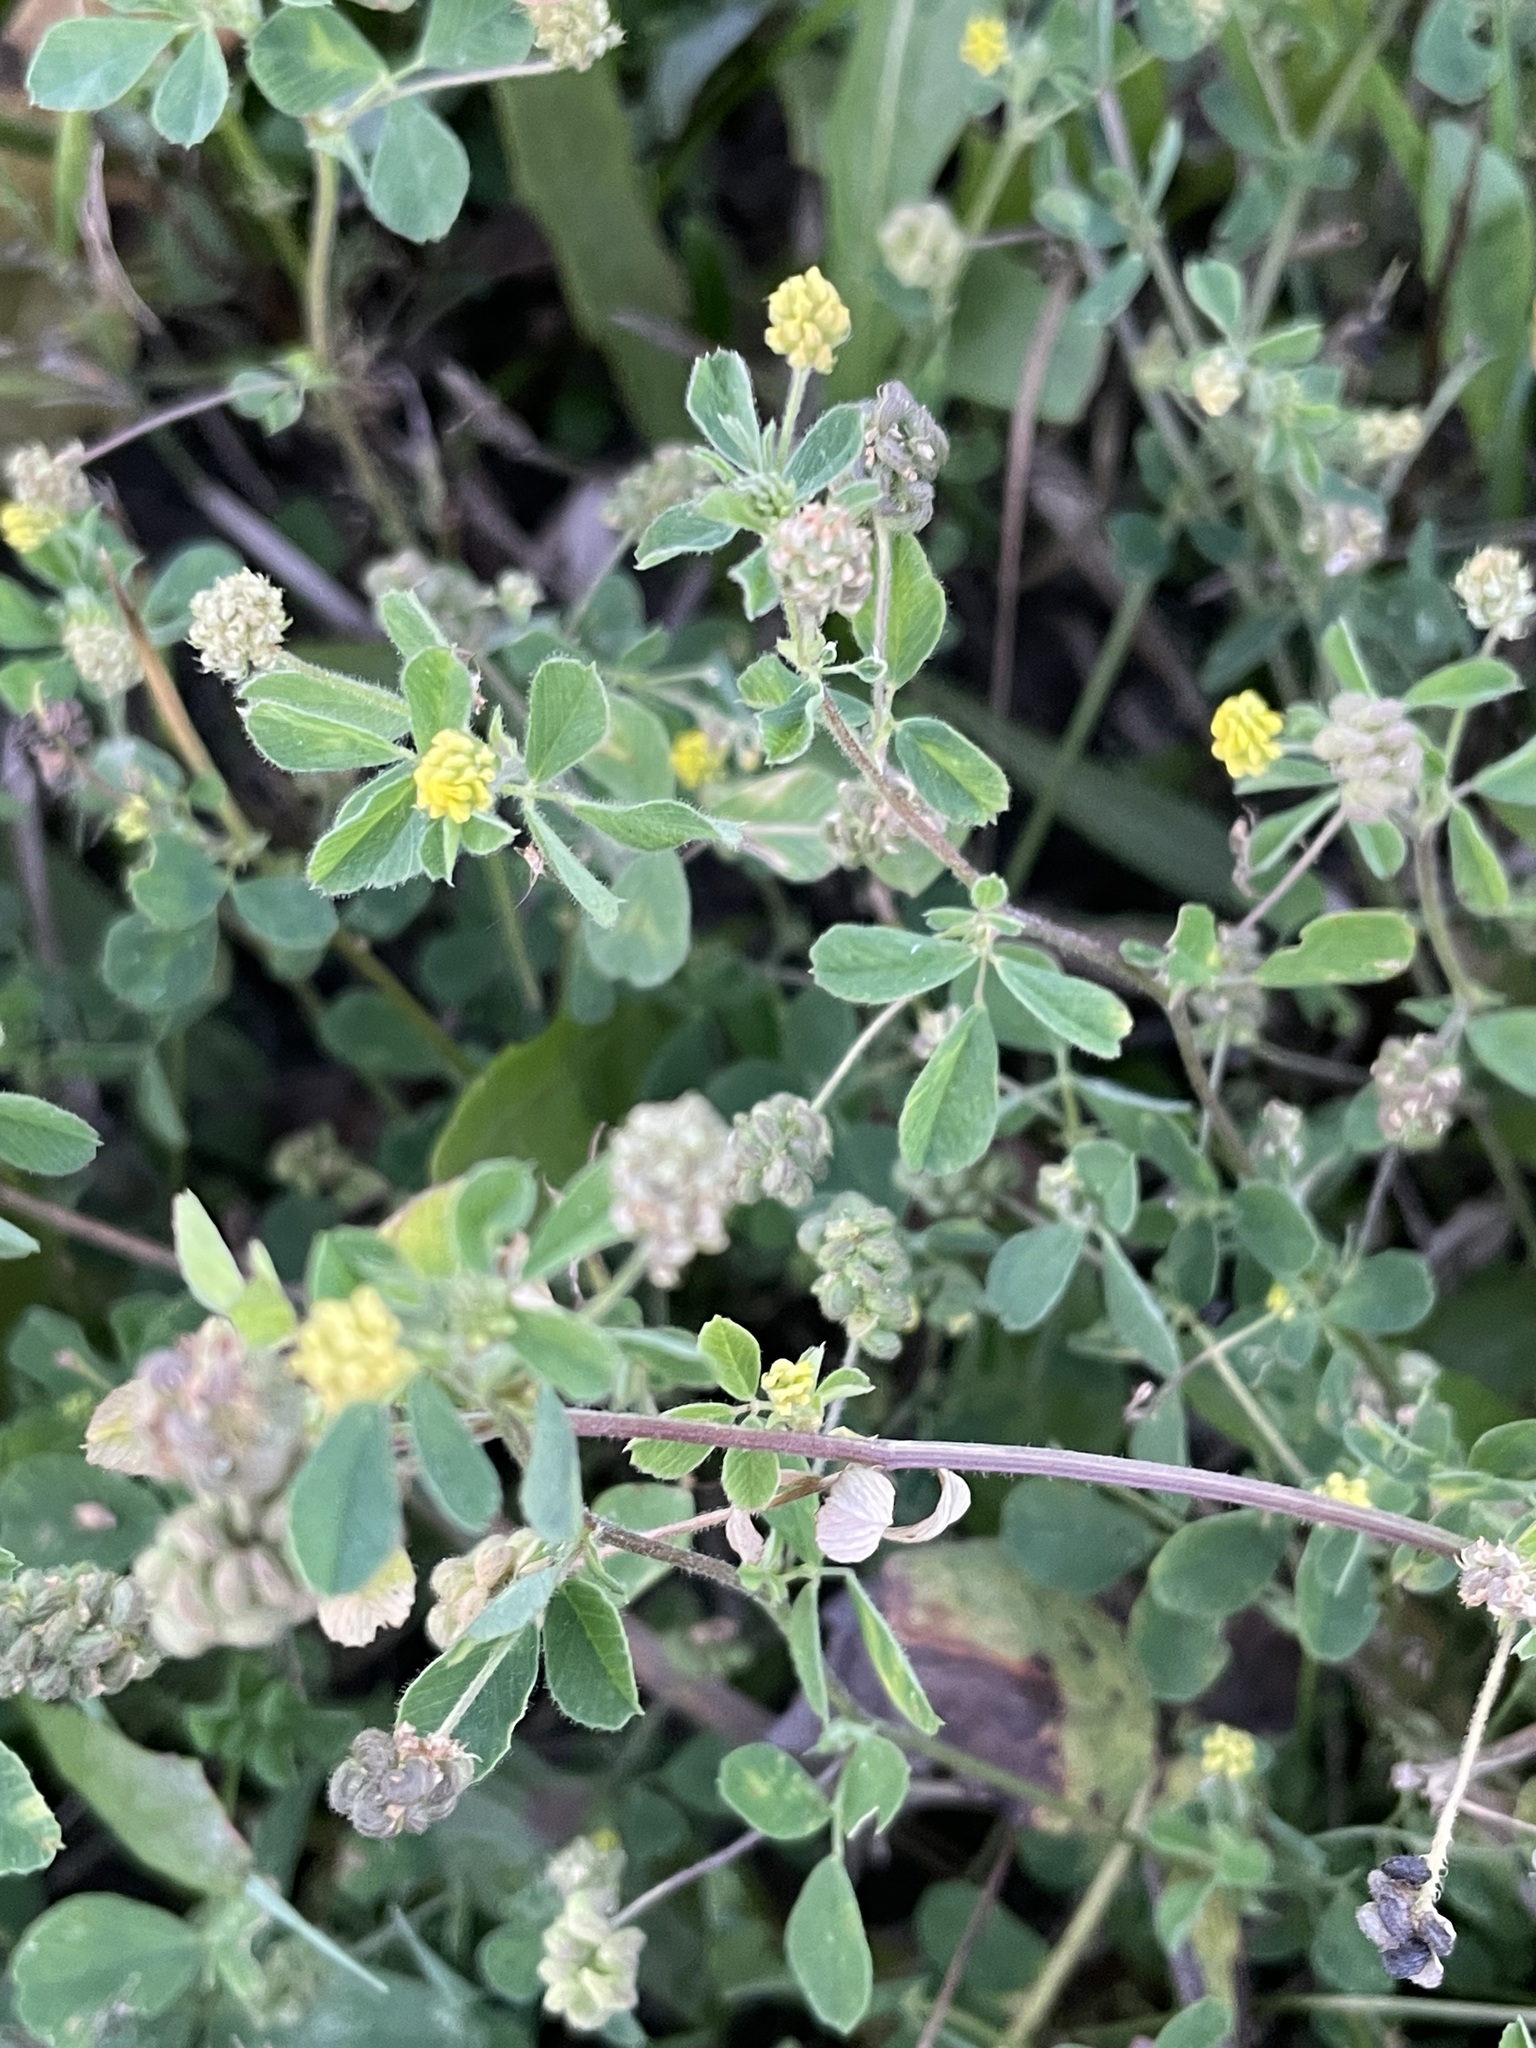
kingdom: Plantae
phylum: Tracheophyta
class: Magnoliopsida
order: Fabales
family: Fabaceae
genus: Medicago
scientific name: Medicago lupulina
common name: Black medick
